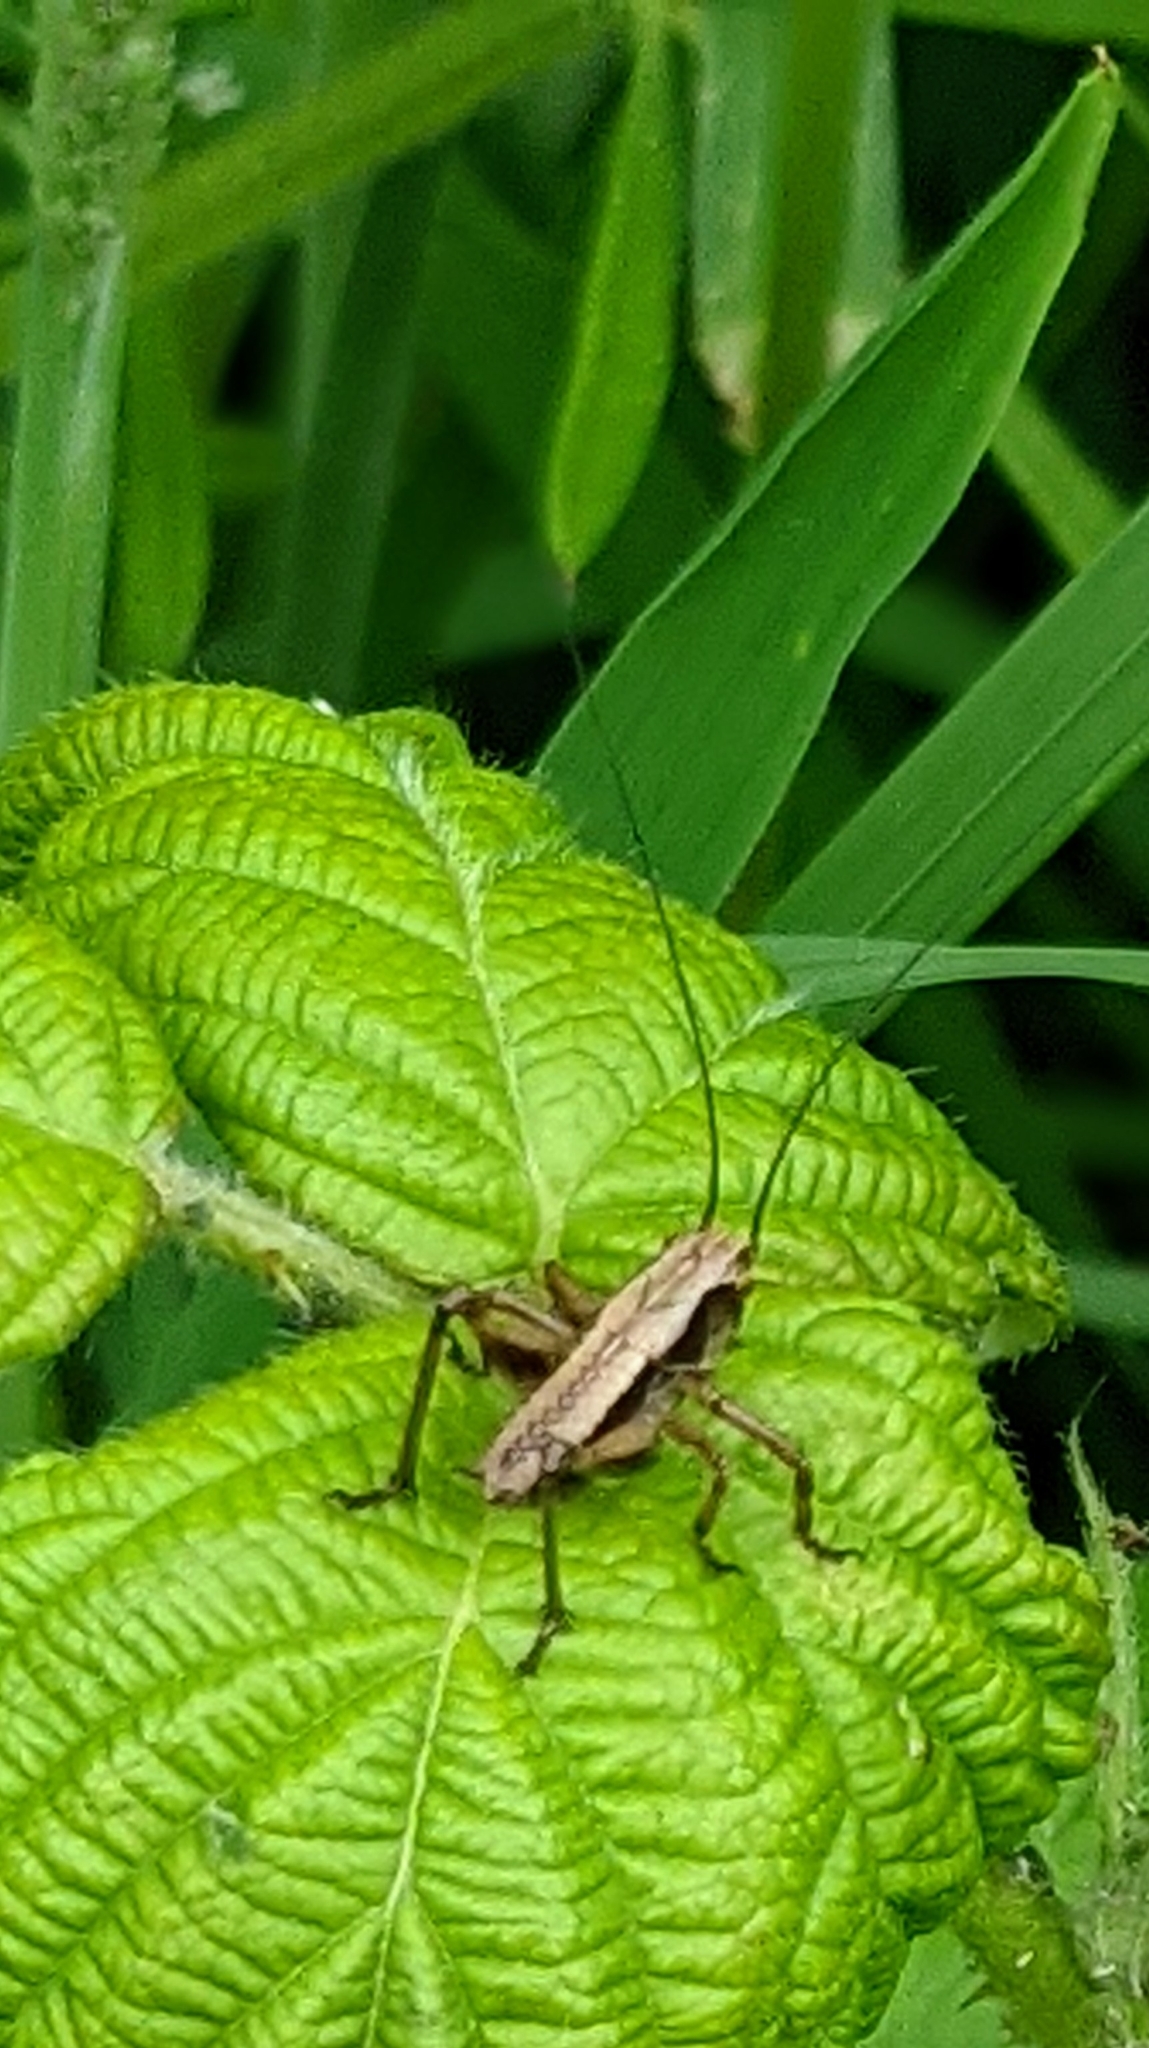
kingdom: Animalia
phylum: Arthropoda
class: Insecta
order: Orthoptera
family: Tettigoniidae
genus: Pholidoptera
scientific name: Pholidoptera griseoaptera
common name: Dark bush-cricket
